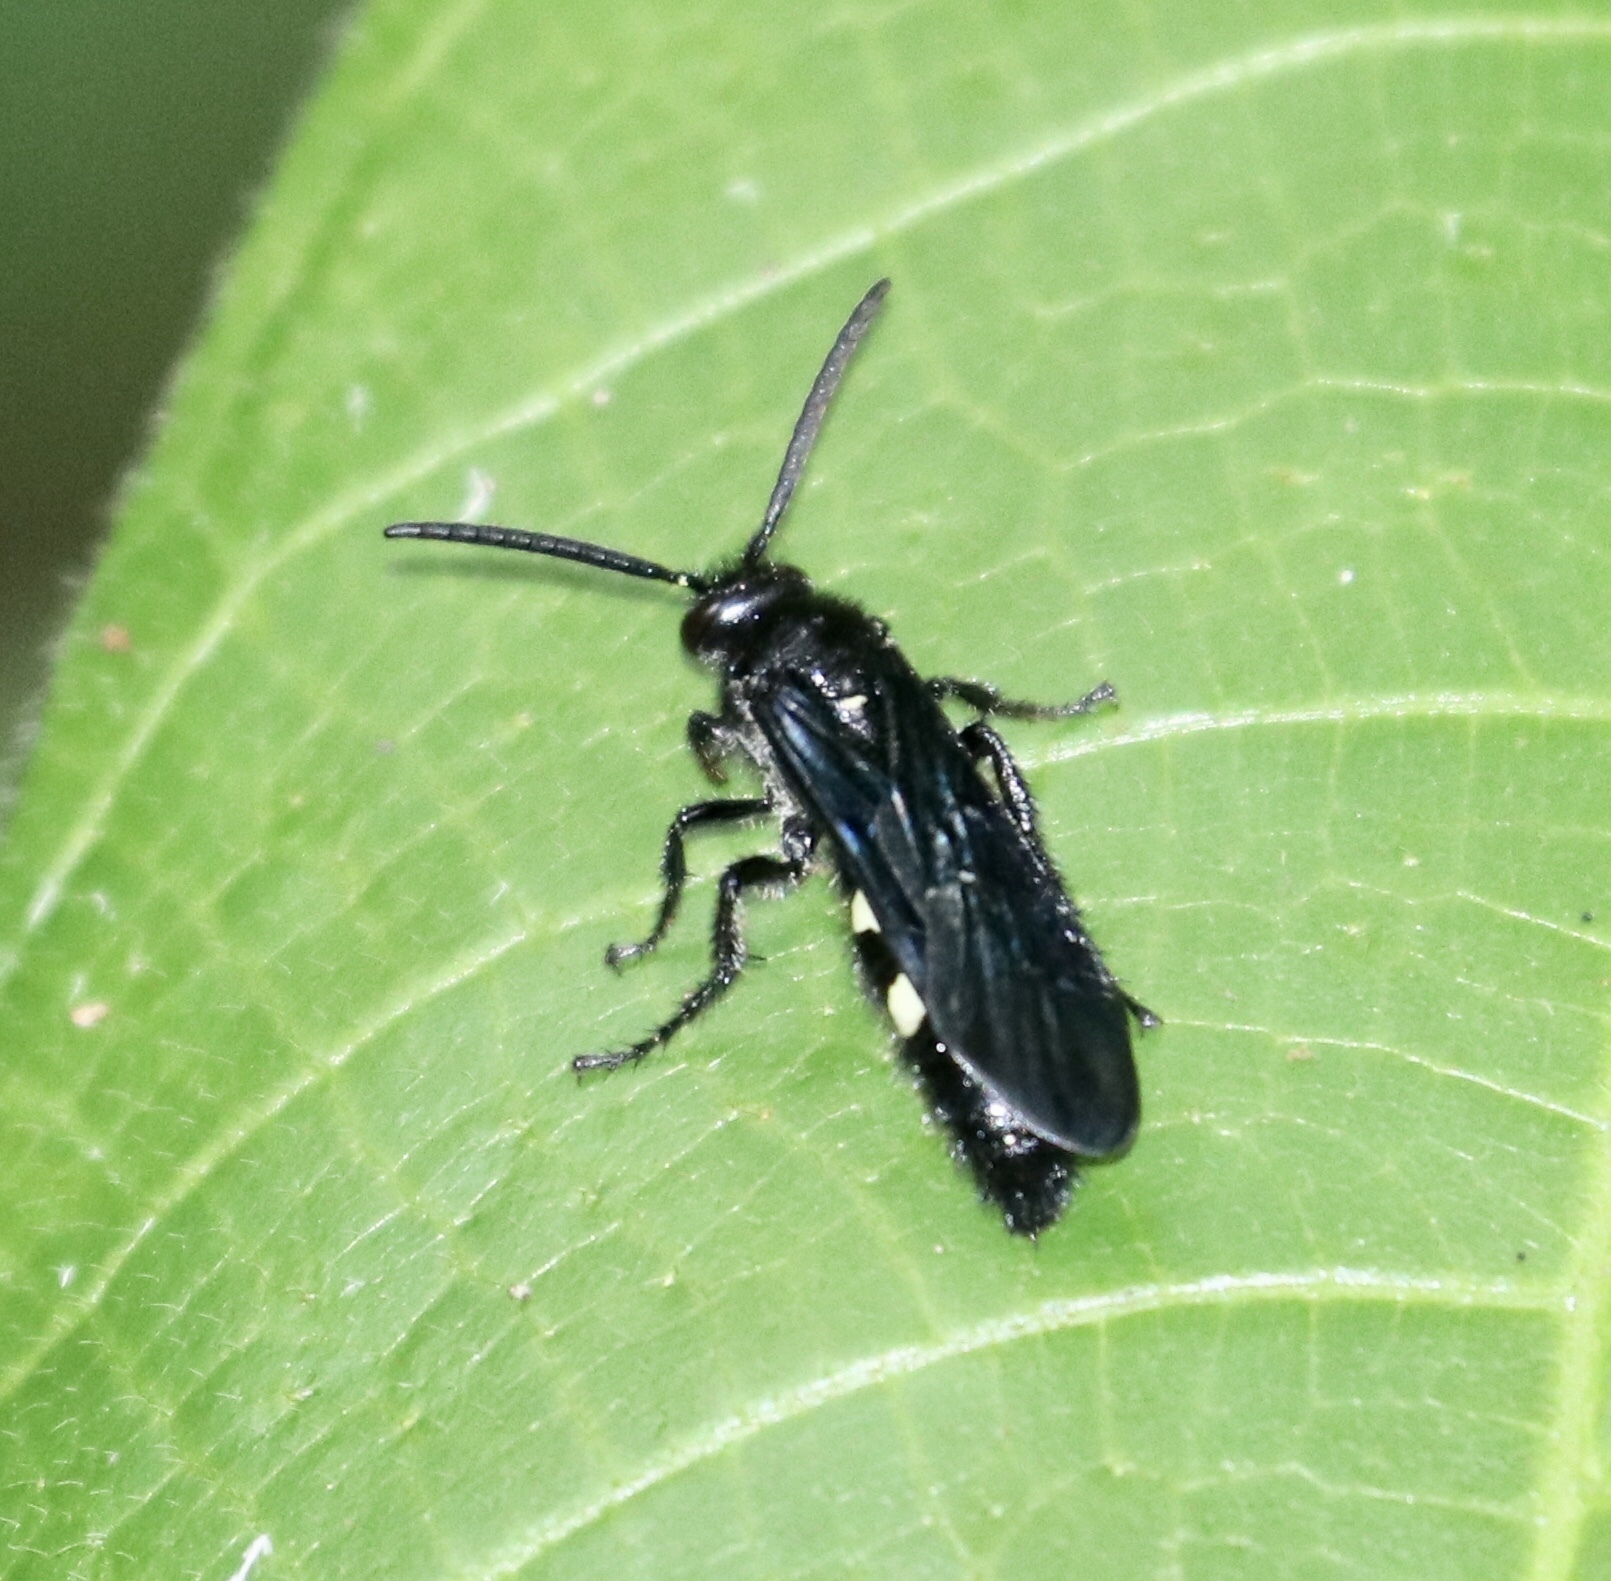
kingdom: Animalia
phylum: Arthropoda
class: Insecta
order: Hymenoptera
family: Scoliidae
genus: Scolia
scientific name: Scolia guttata
